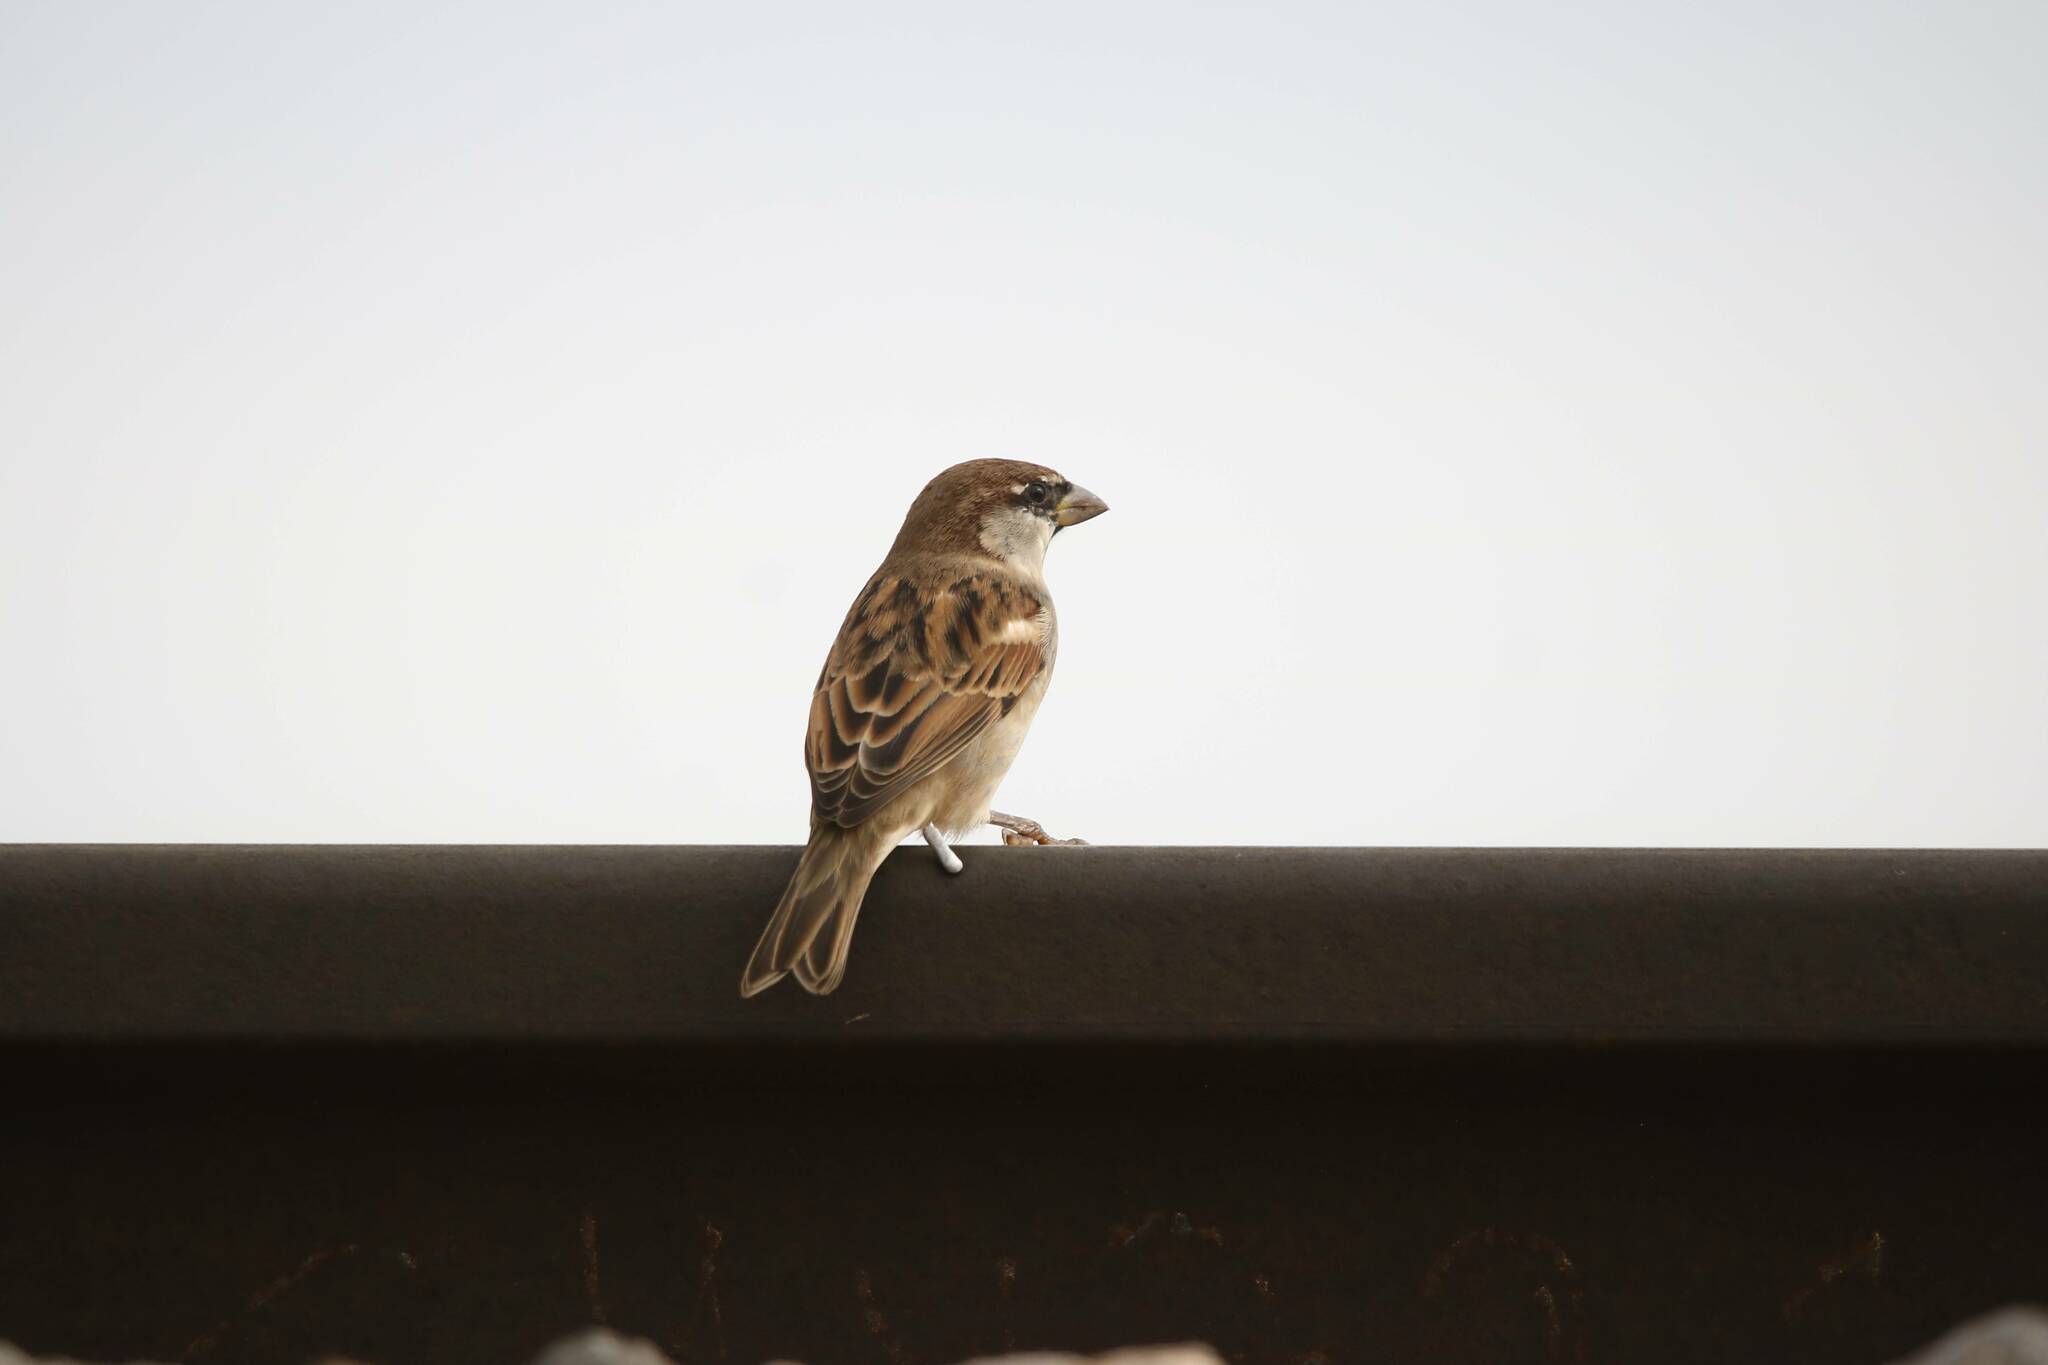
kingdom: Animalia
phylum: Chordata
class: Aves
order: Passeriformes
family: Passeridae
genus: Passer
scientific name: Passer domesticus
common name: House sparrow
